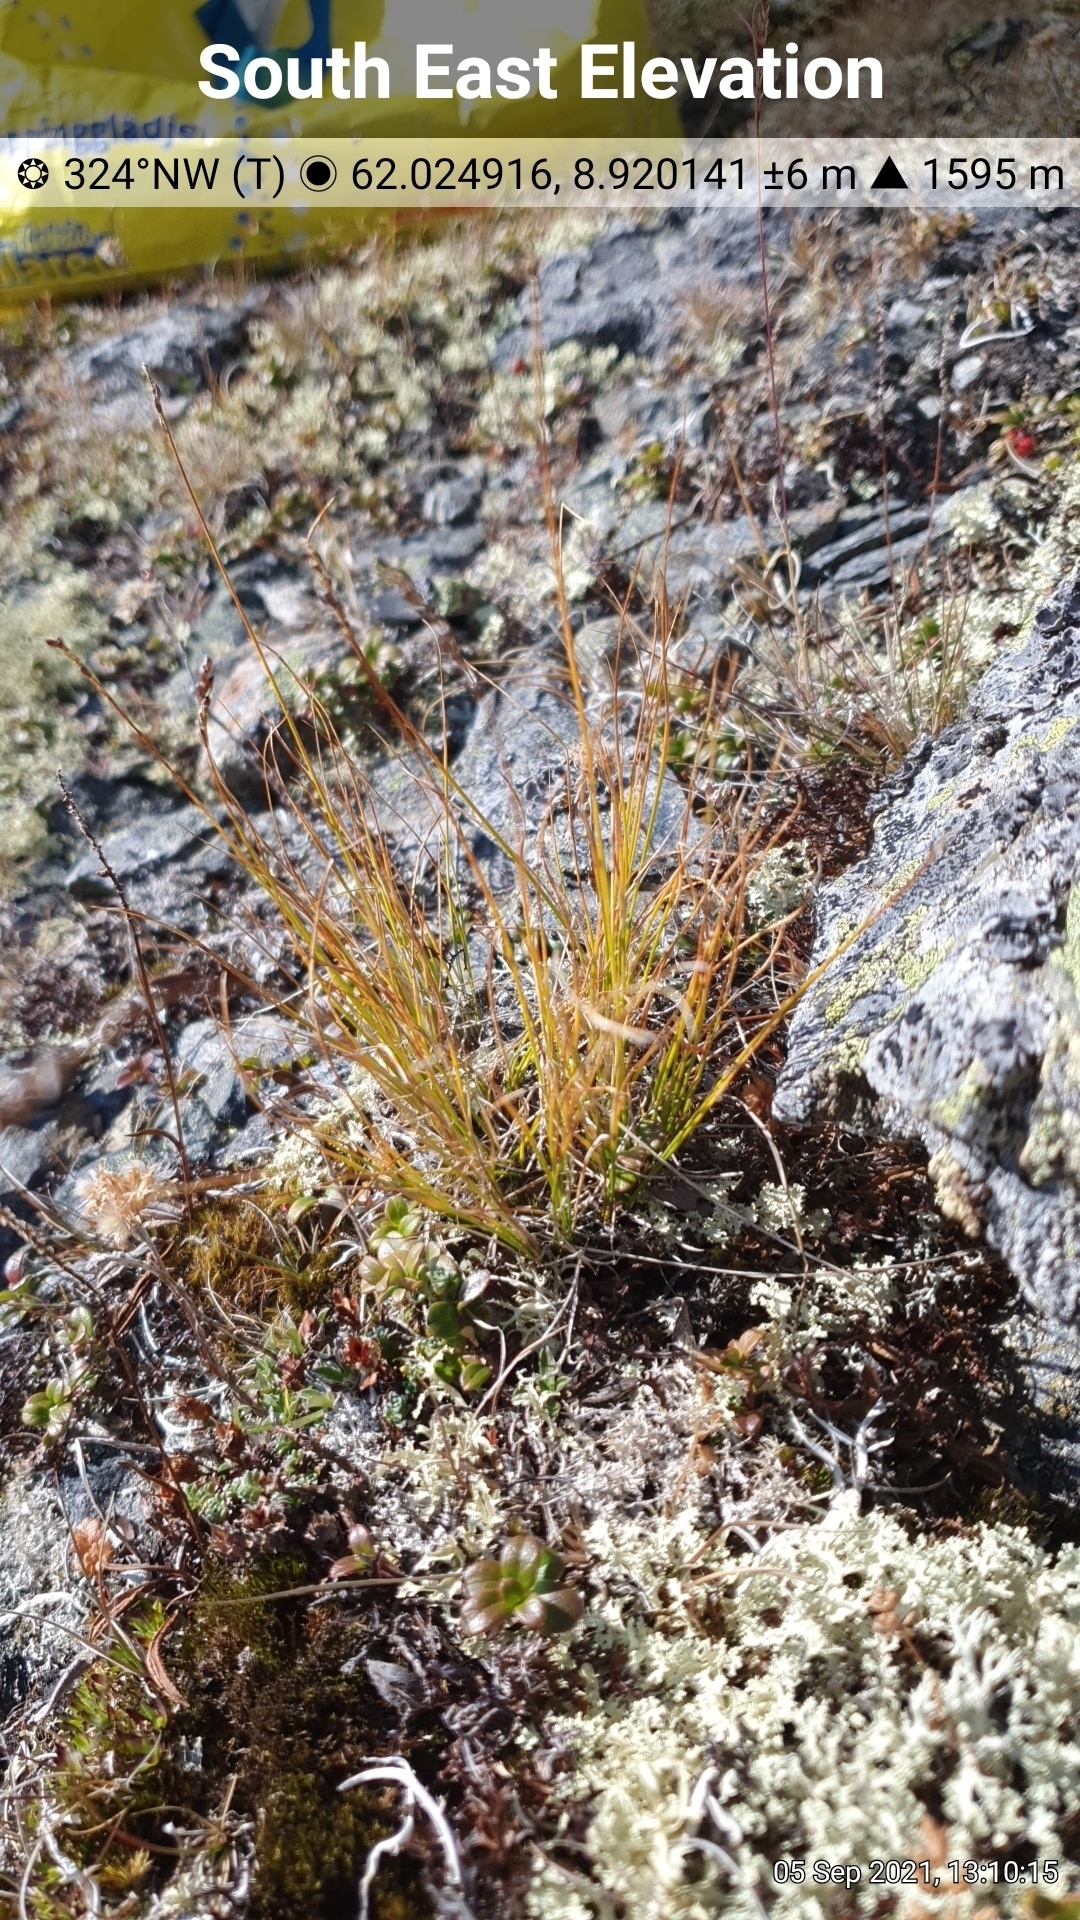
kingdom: Plantae
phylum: Tracheophyta
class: Liliopsida
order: Poales
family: Cyperaceae
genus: Carex
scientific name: Carex myosuroides
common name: Bellard's bog sedge
